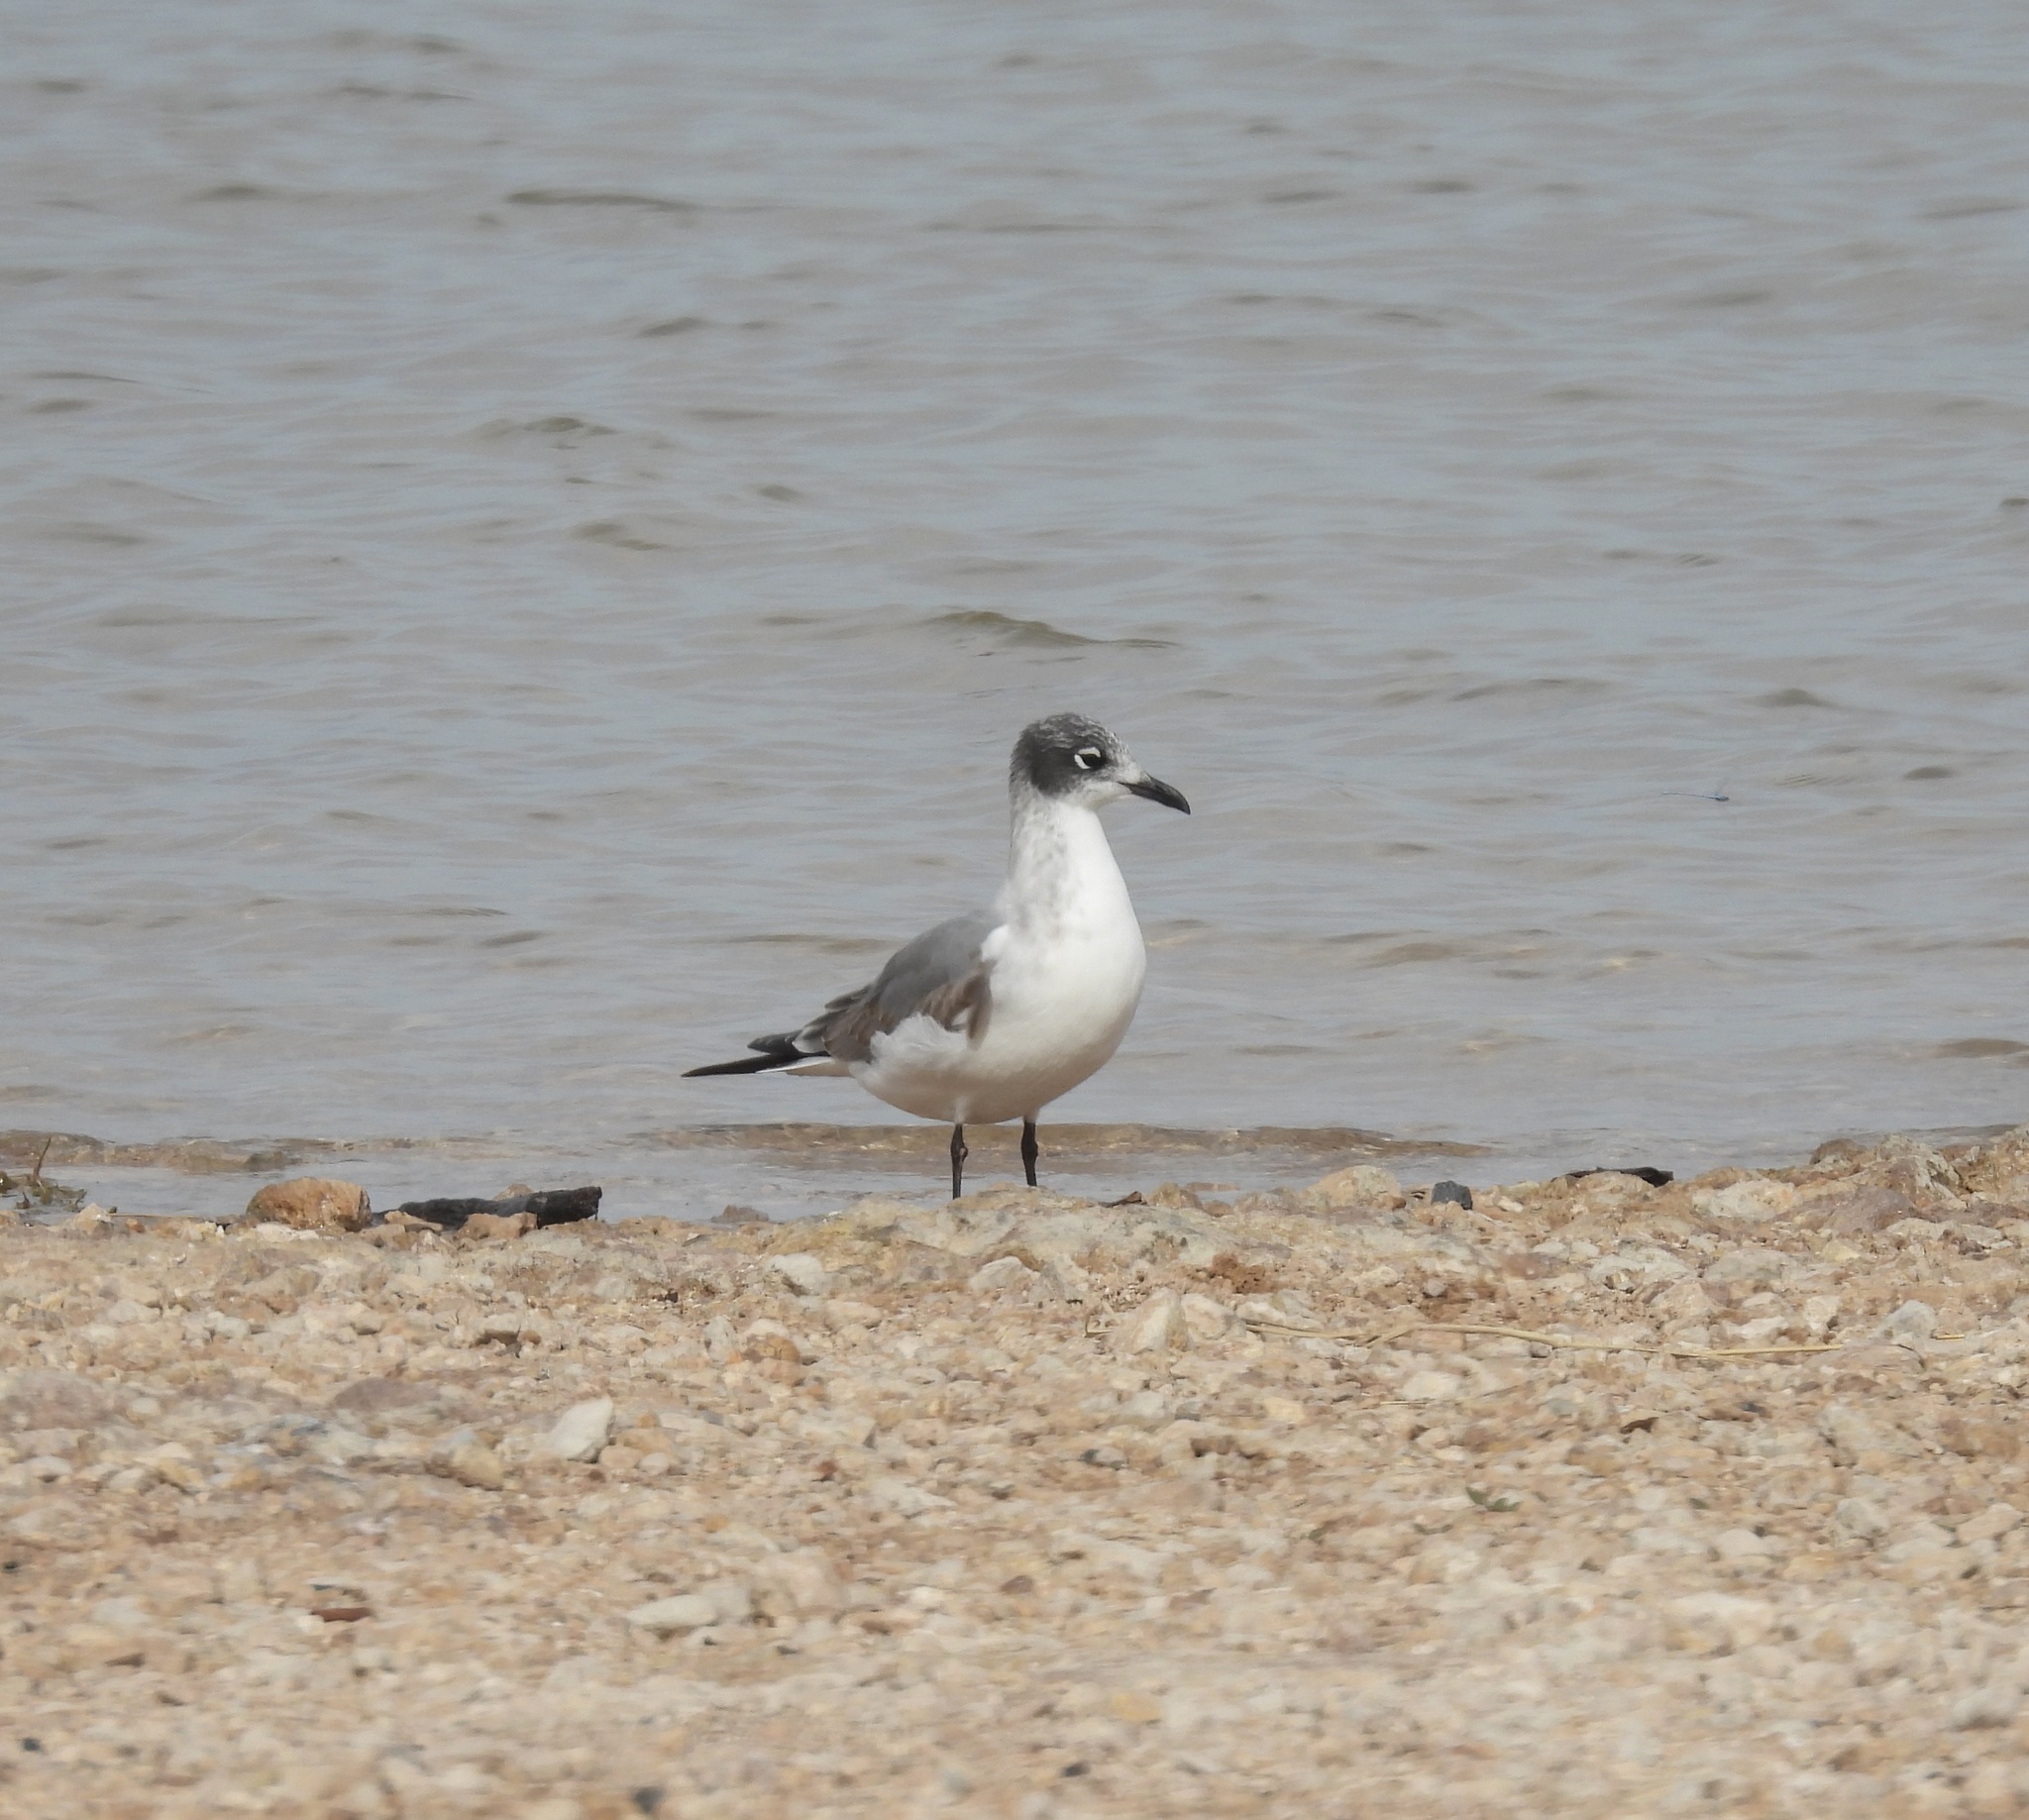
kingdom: Animalia
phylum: Chordata
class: Aves
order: Charadriiformes
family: Laridae
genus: Leucophaeus
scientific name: Leucophaeus pipixcan
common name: Franklin's gull
